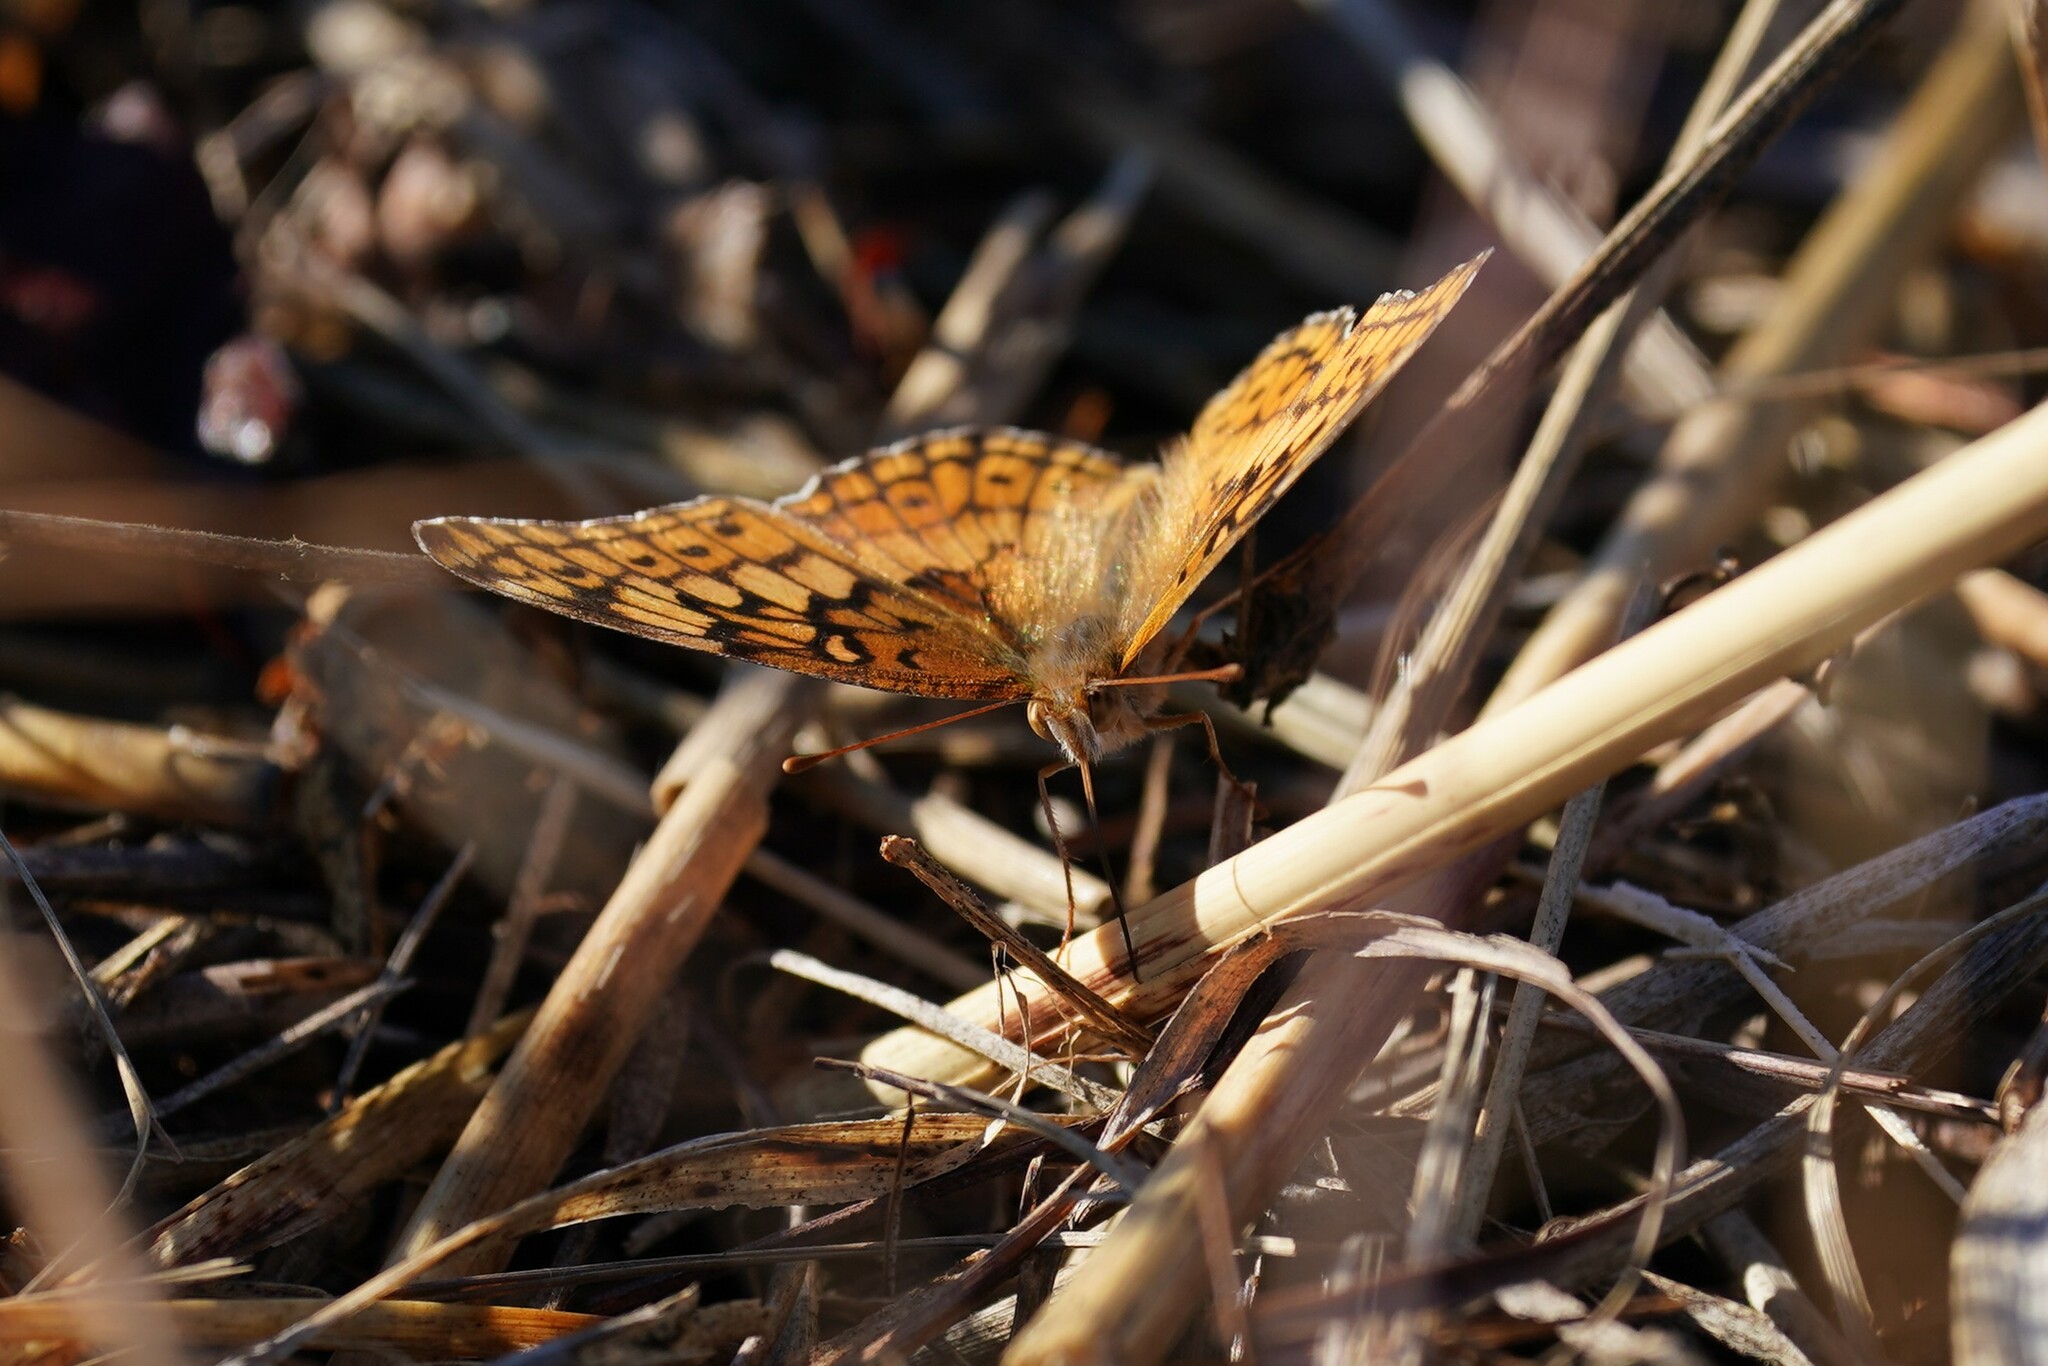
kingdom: Animalia
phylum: Arthropoda
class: Insecta
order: Lepidoptera
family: Nymphalidae
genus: Euptoieta
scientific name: Euptoieta claudia
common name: Variegated fritillary
